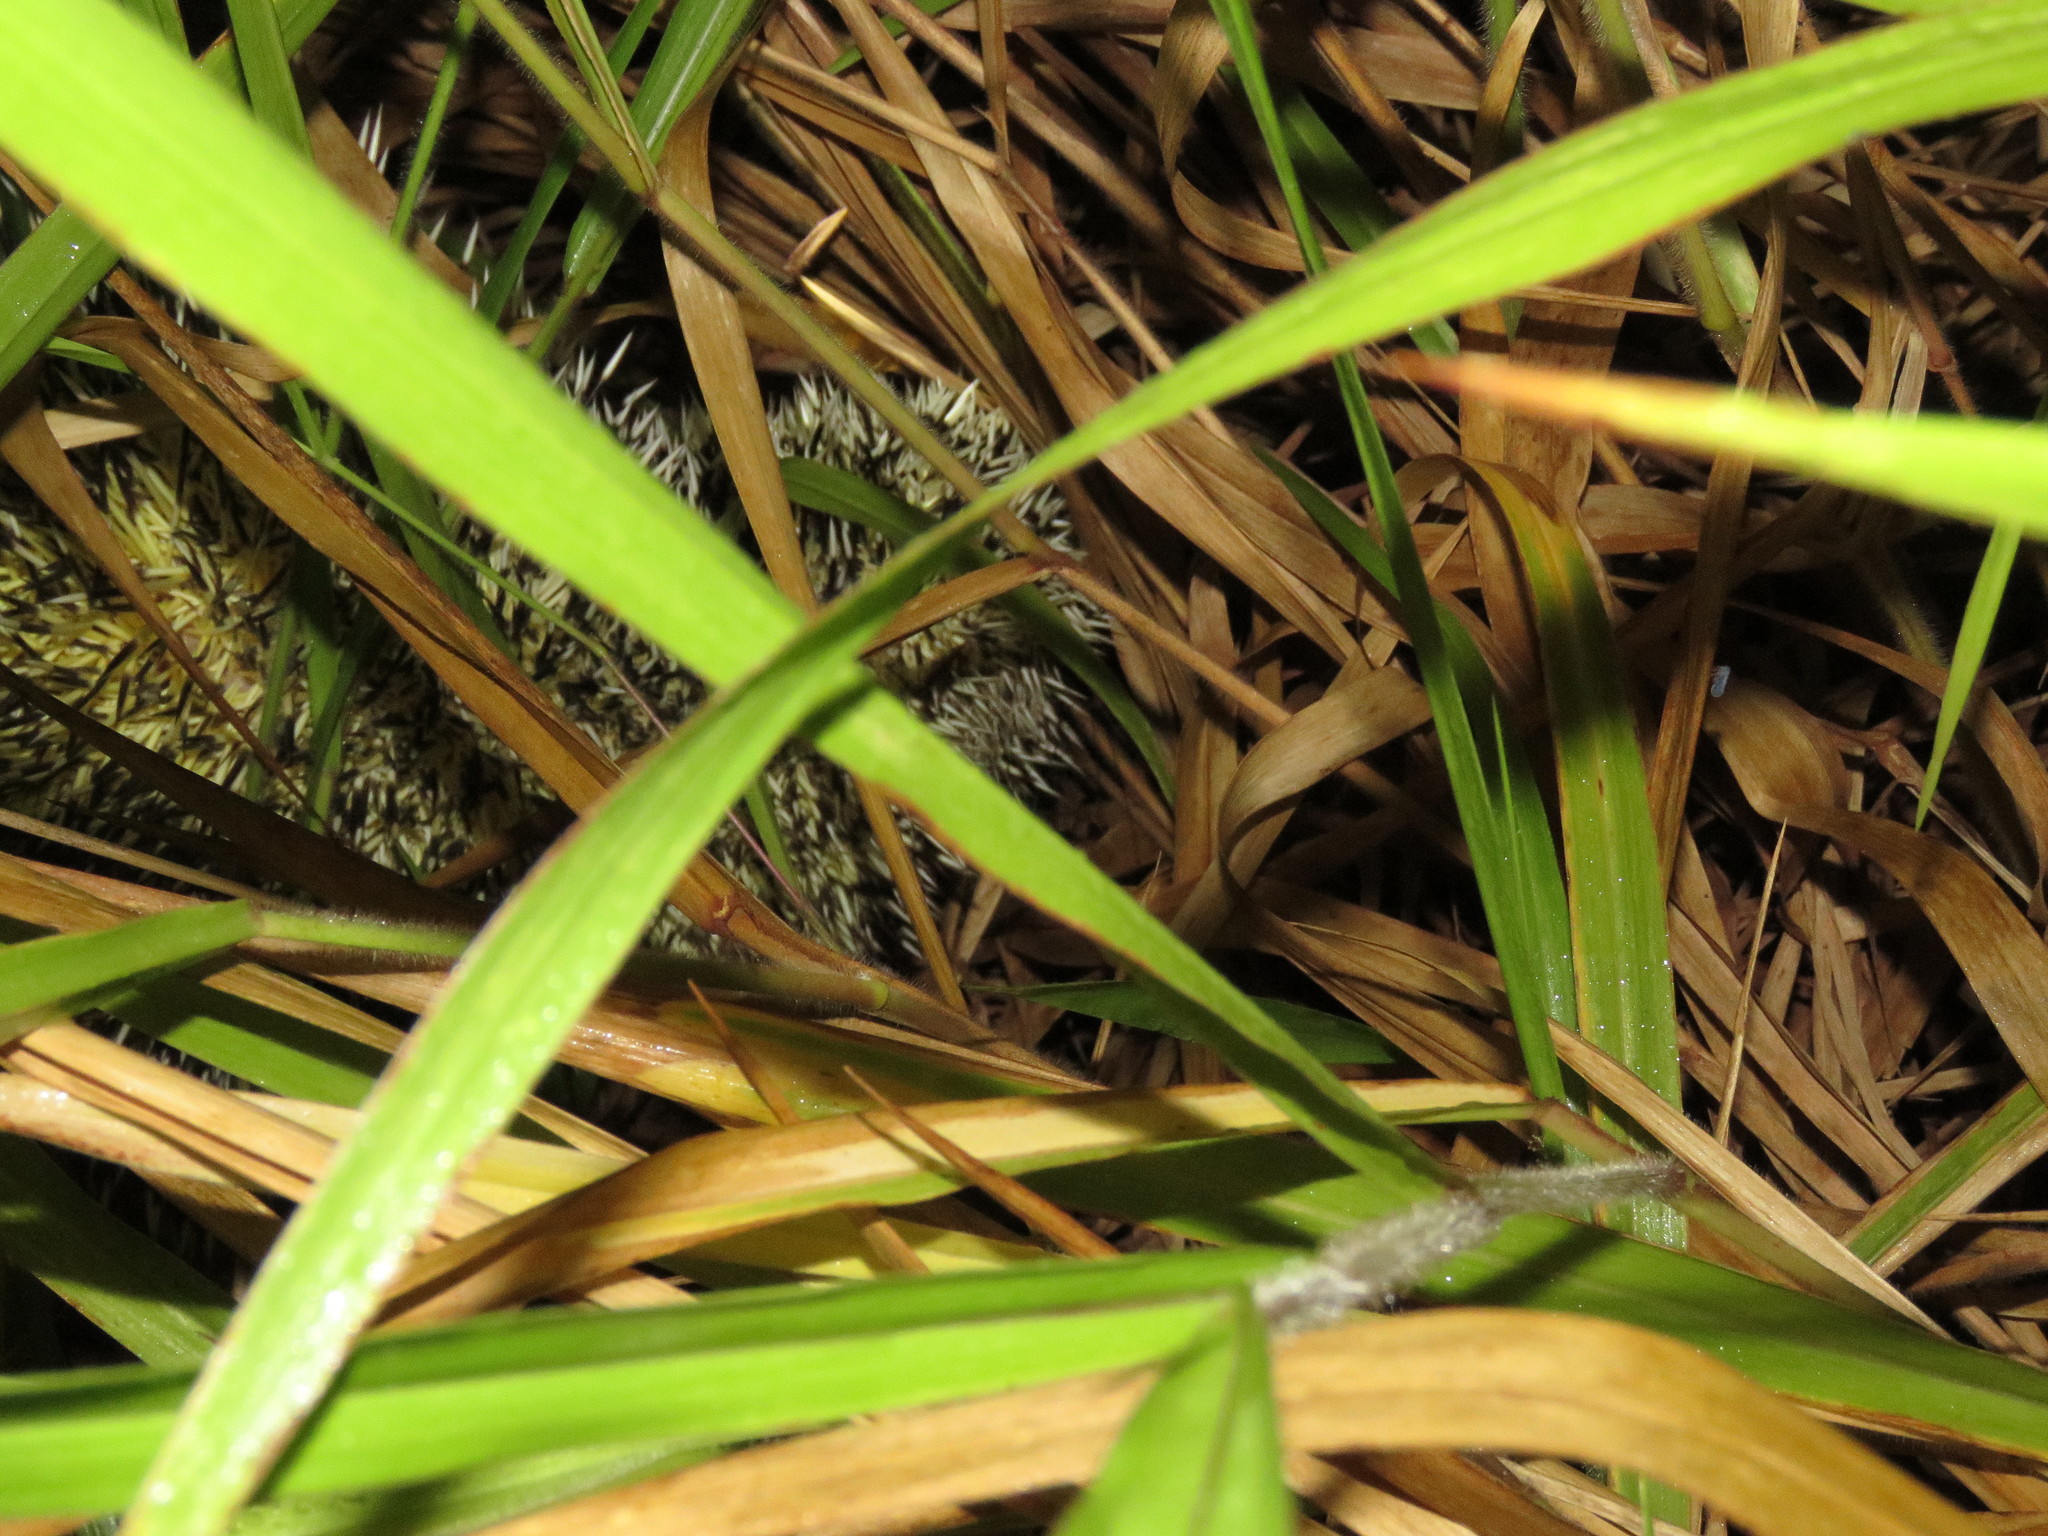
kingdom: Animalia
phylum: Chordata
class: Mammalia
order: Rodentia
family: Erethizontidae
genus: Coendou
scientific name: Coendou longicaudatus
